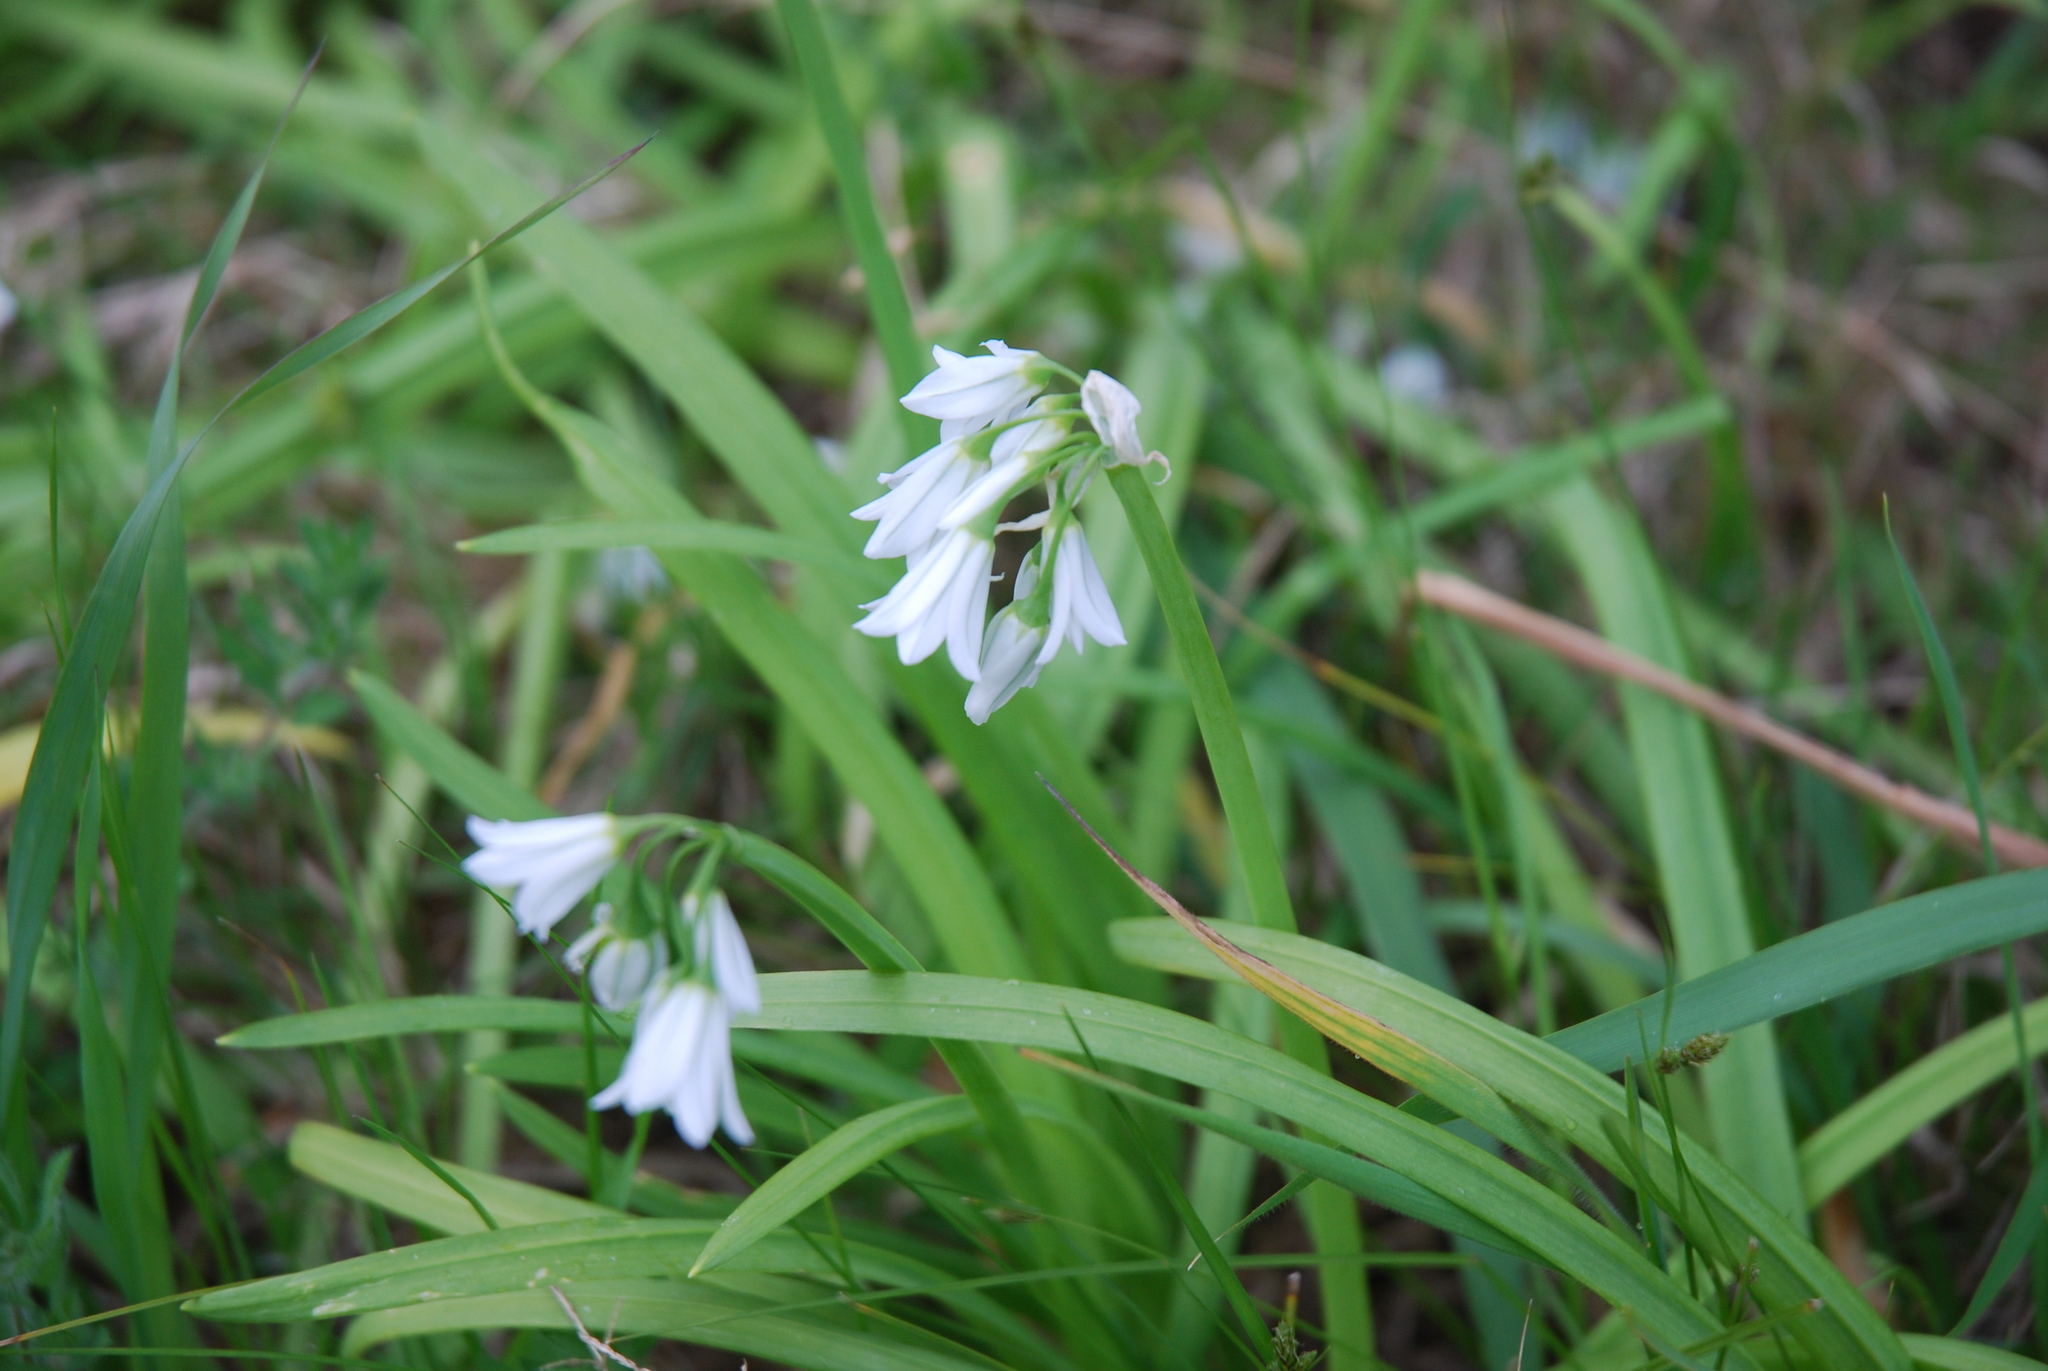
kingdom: Plantae
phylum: Tracheophyta
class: Liliopsida
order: Asparagales
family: Amaryllidaceae
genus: Allium
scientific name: Allium triquetrum
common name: Three-cornered garlic
